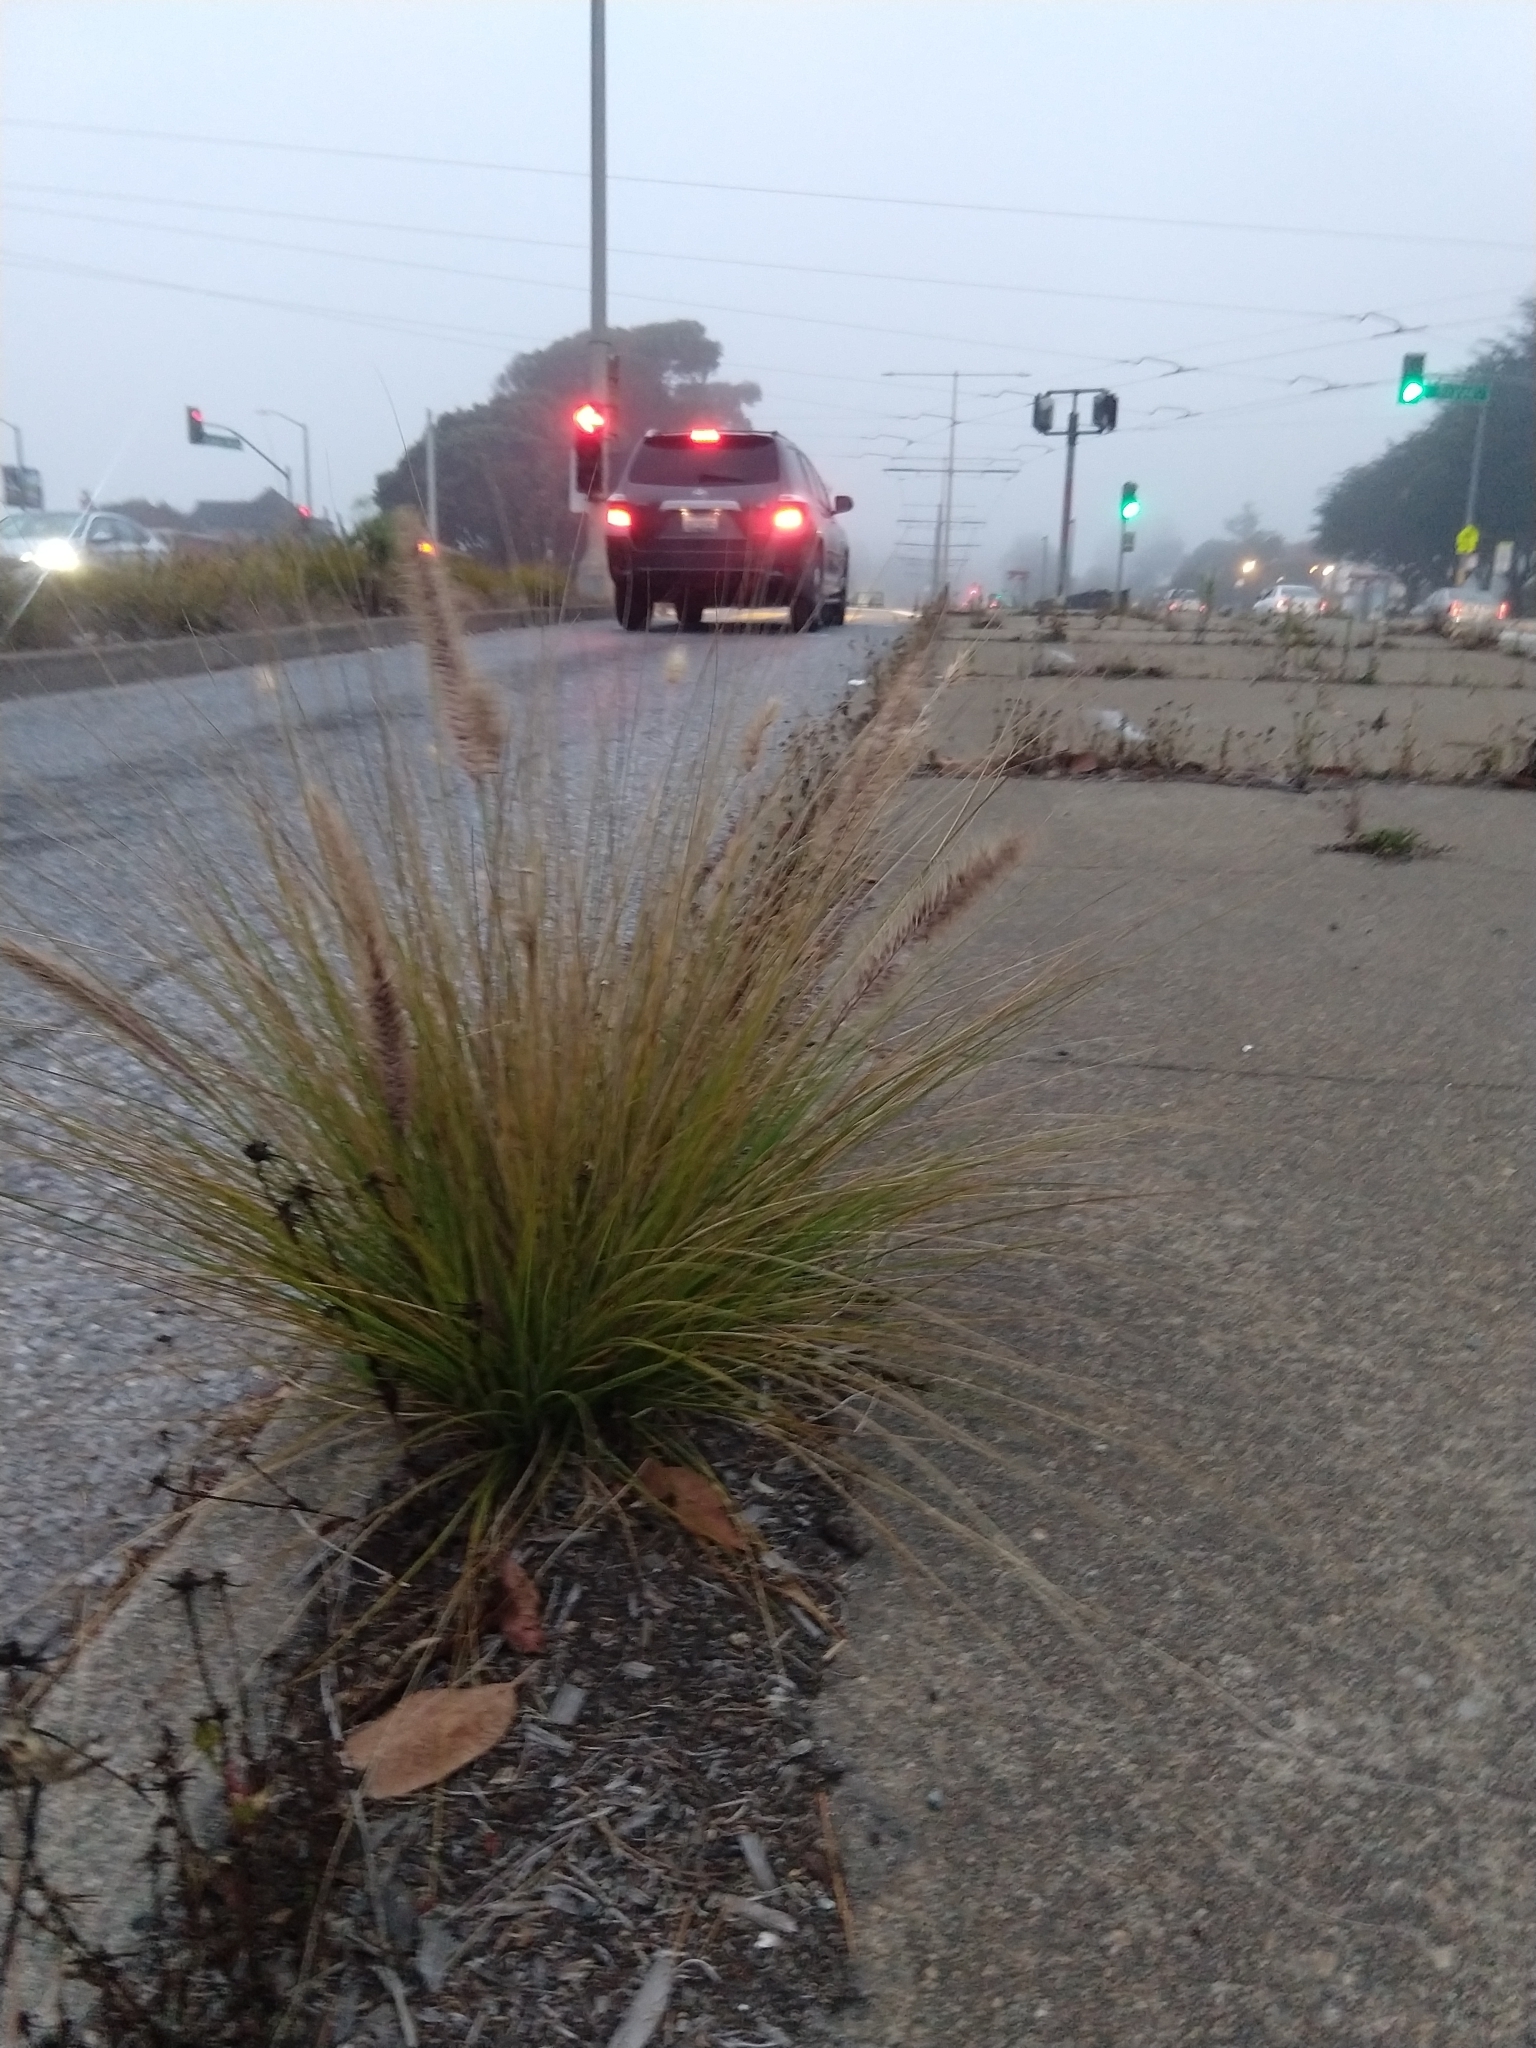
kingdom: Plantae
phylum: Tracheophyta
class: Liliopsida
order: Poales
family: Poaceae
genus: Cenchrus
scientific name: Cenchrus setaceus
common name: Crimson fountaingrass
